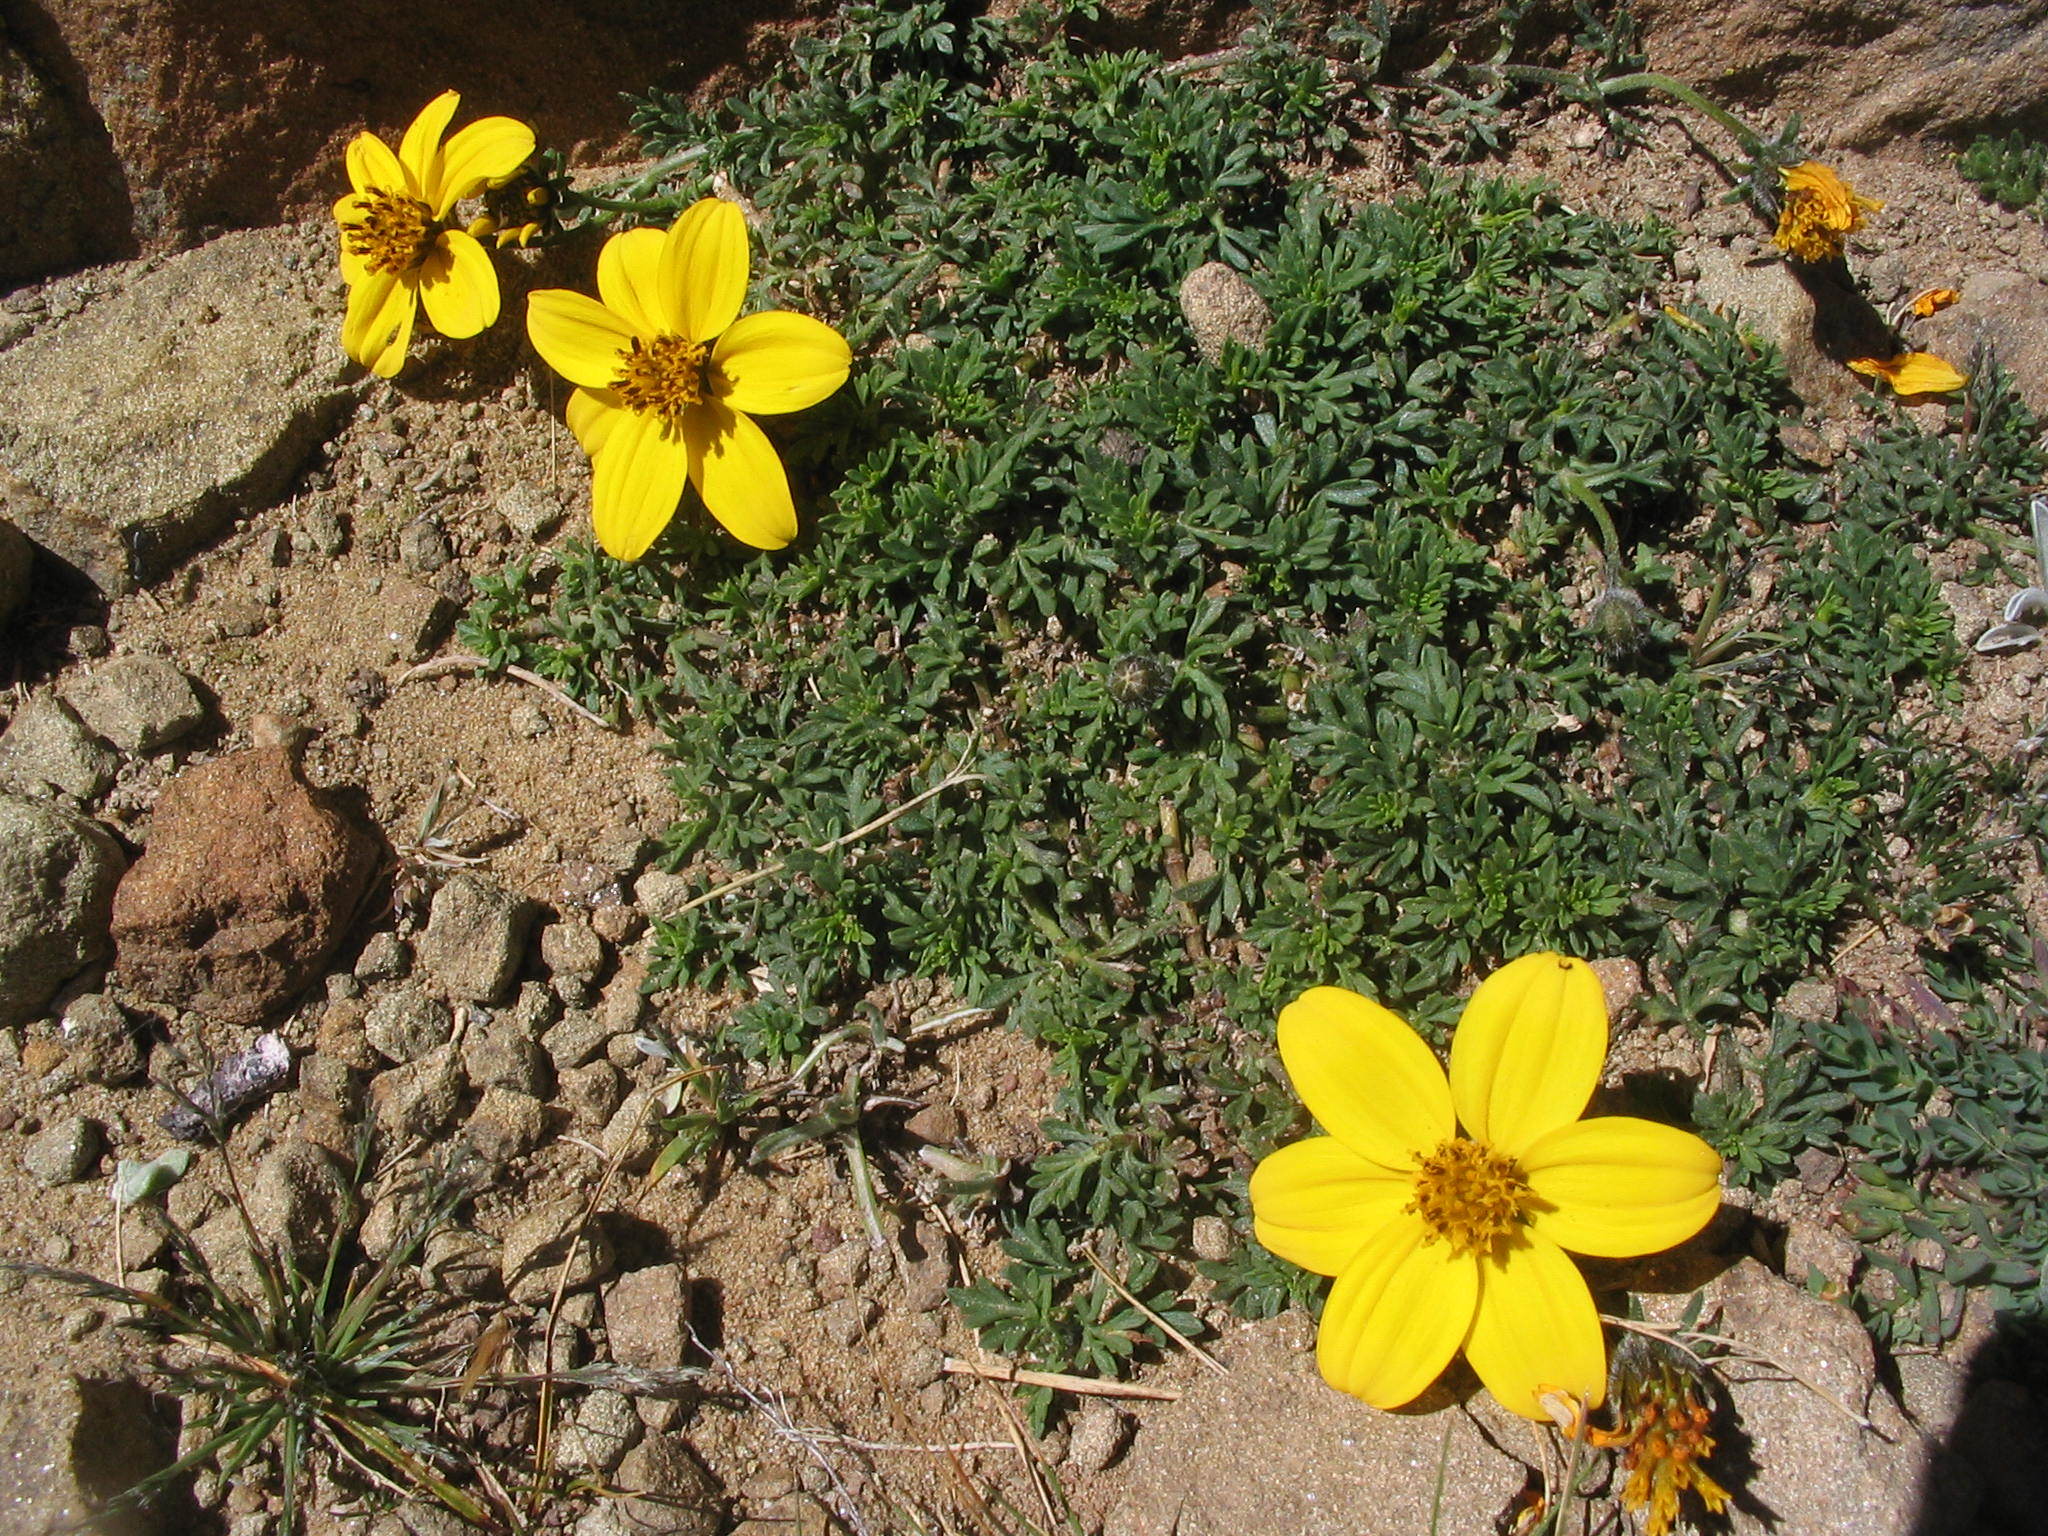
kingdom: Plantae
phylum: Tracheophyta
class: Magnoliopsida
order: Asterales
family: Asteraceae
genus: Bidens
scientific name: Bidens andicola
